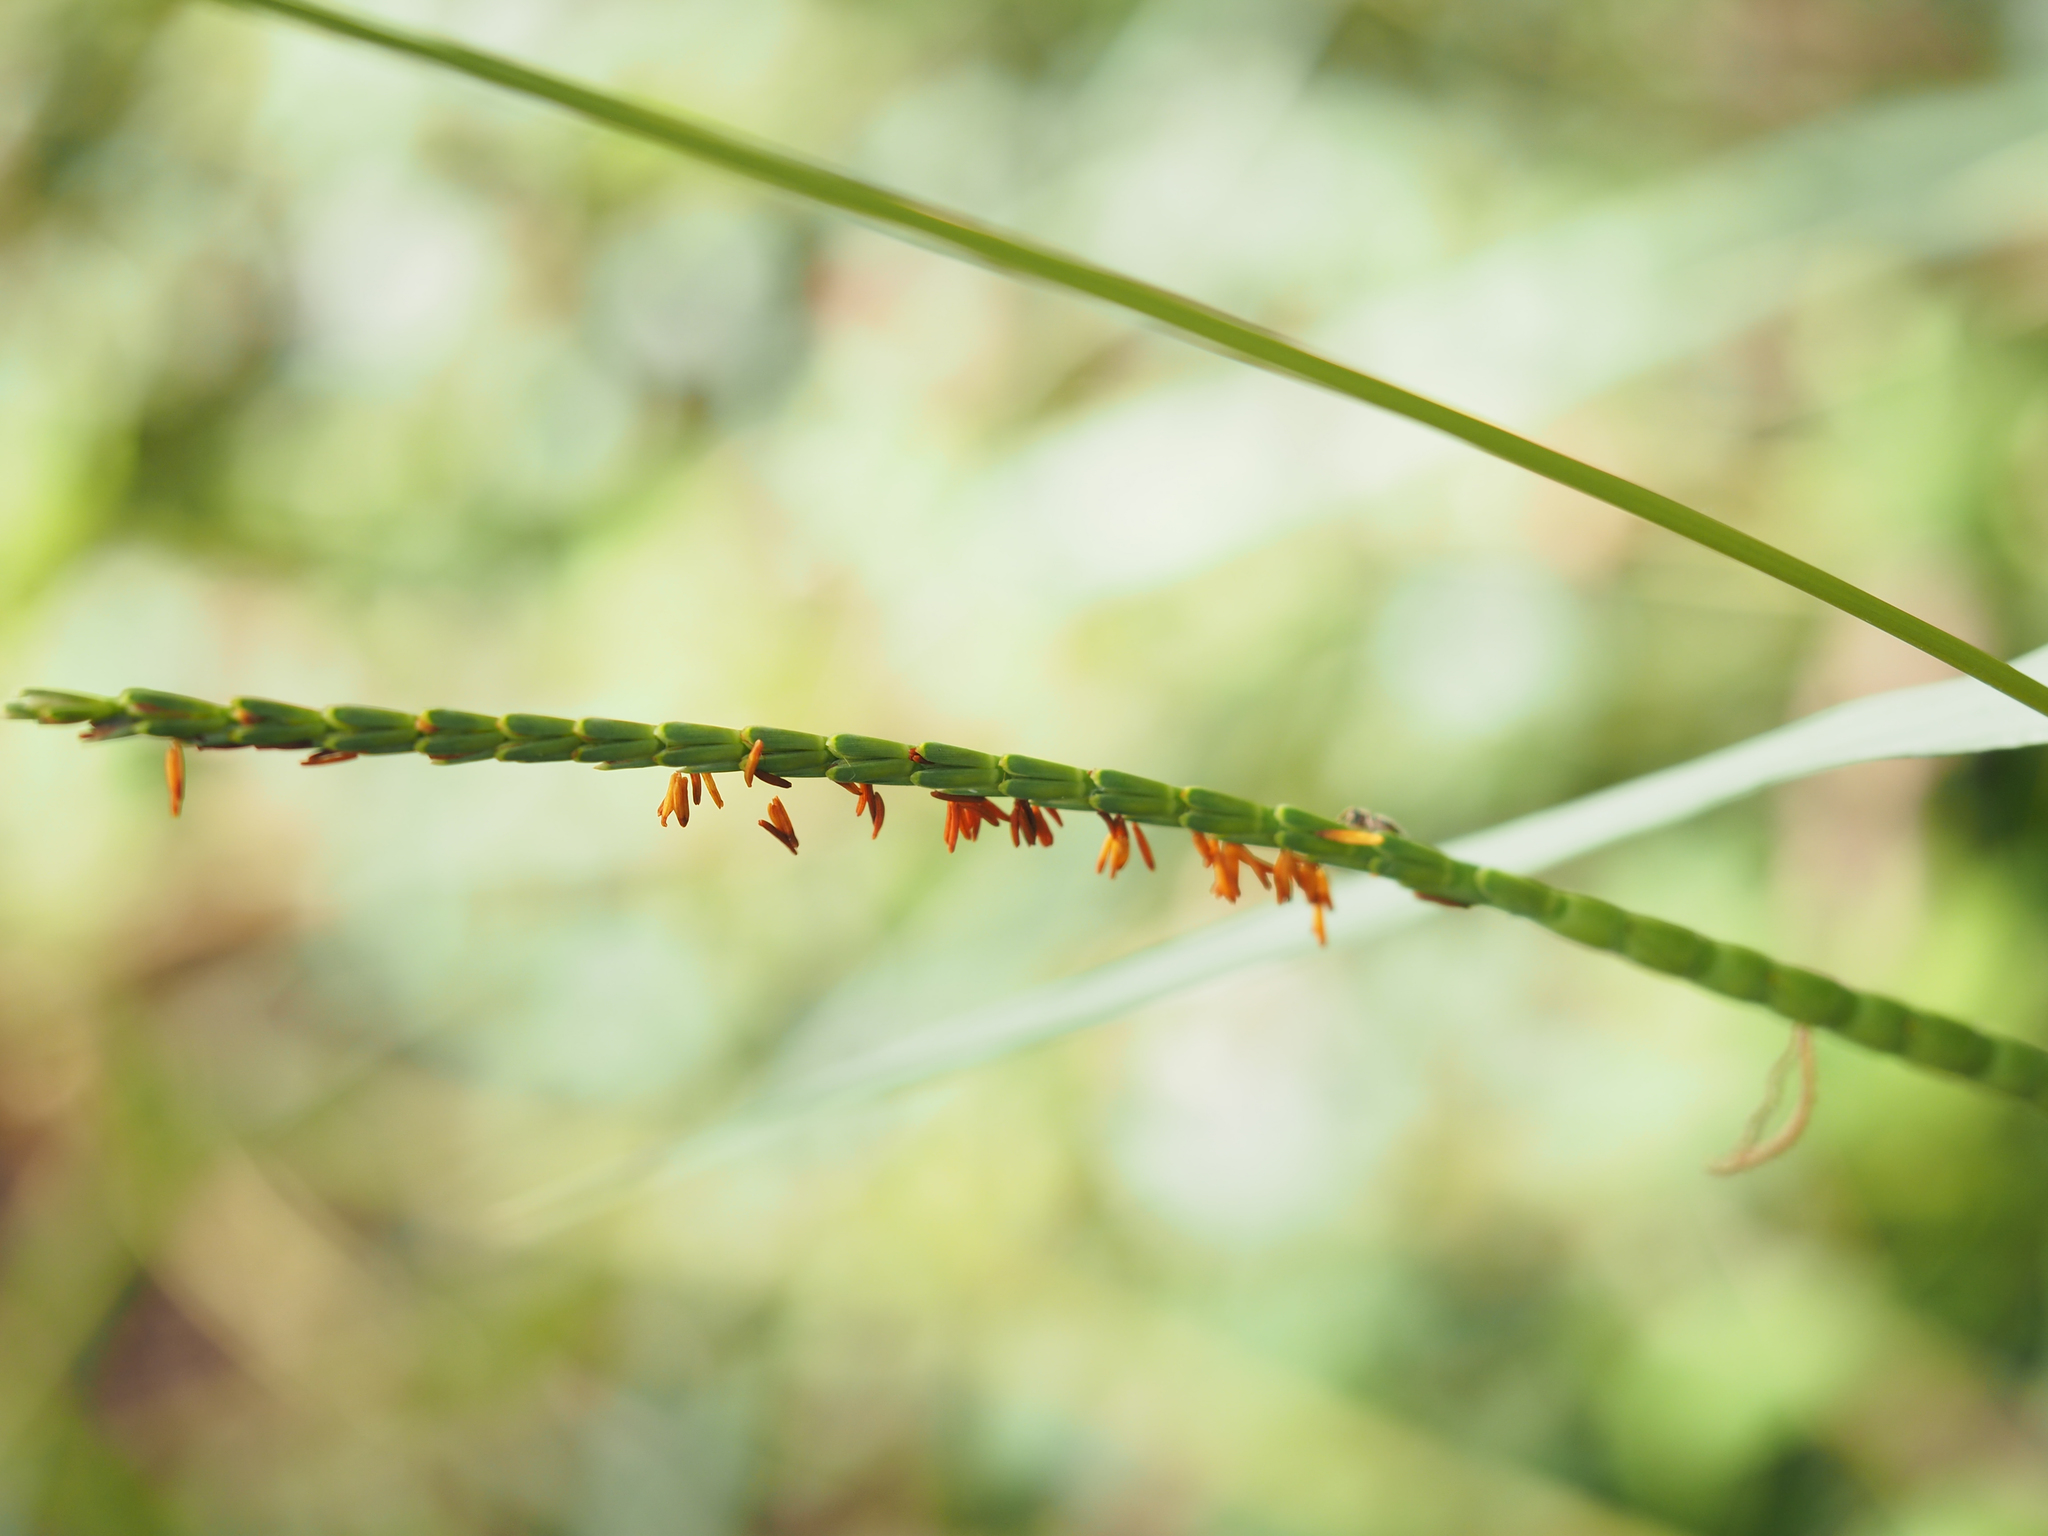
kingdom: Plantae
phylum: Tracheophyta
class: Liliopsida
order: Poales
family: Poaceae
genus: Tripsacum
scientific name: Tripsacum dactyloides
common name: Buffalo-grass
